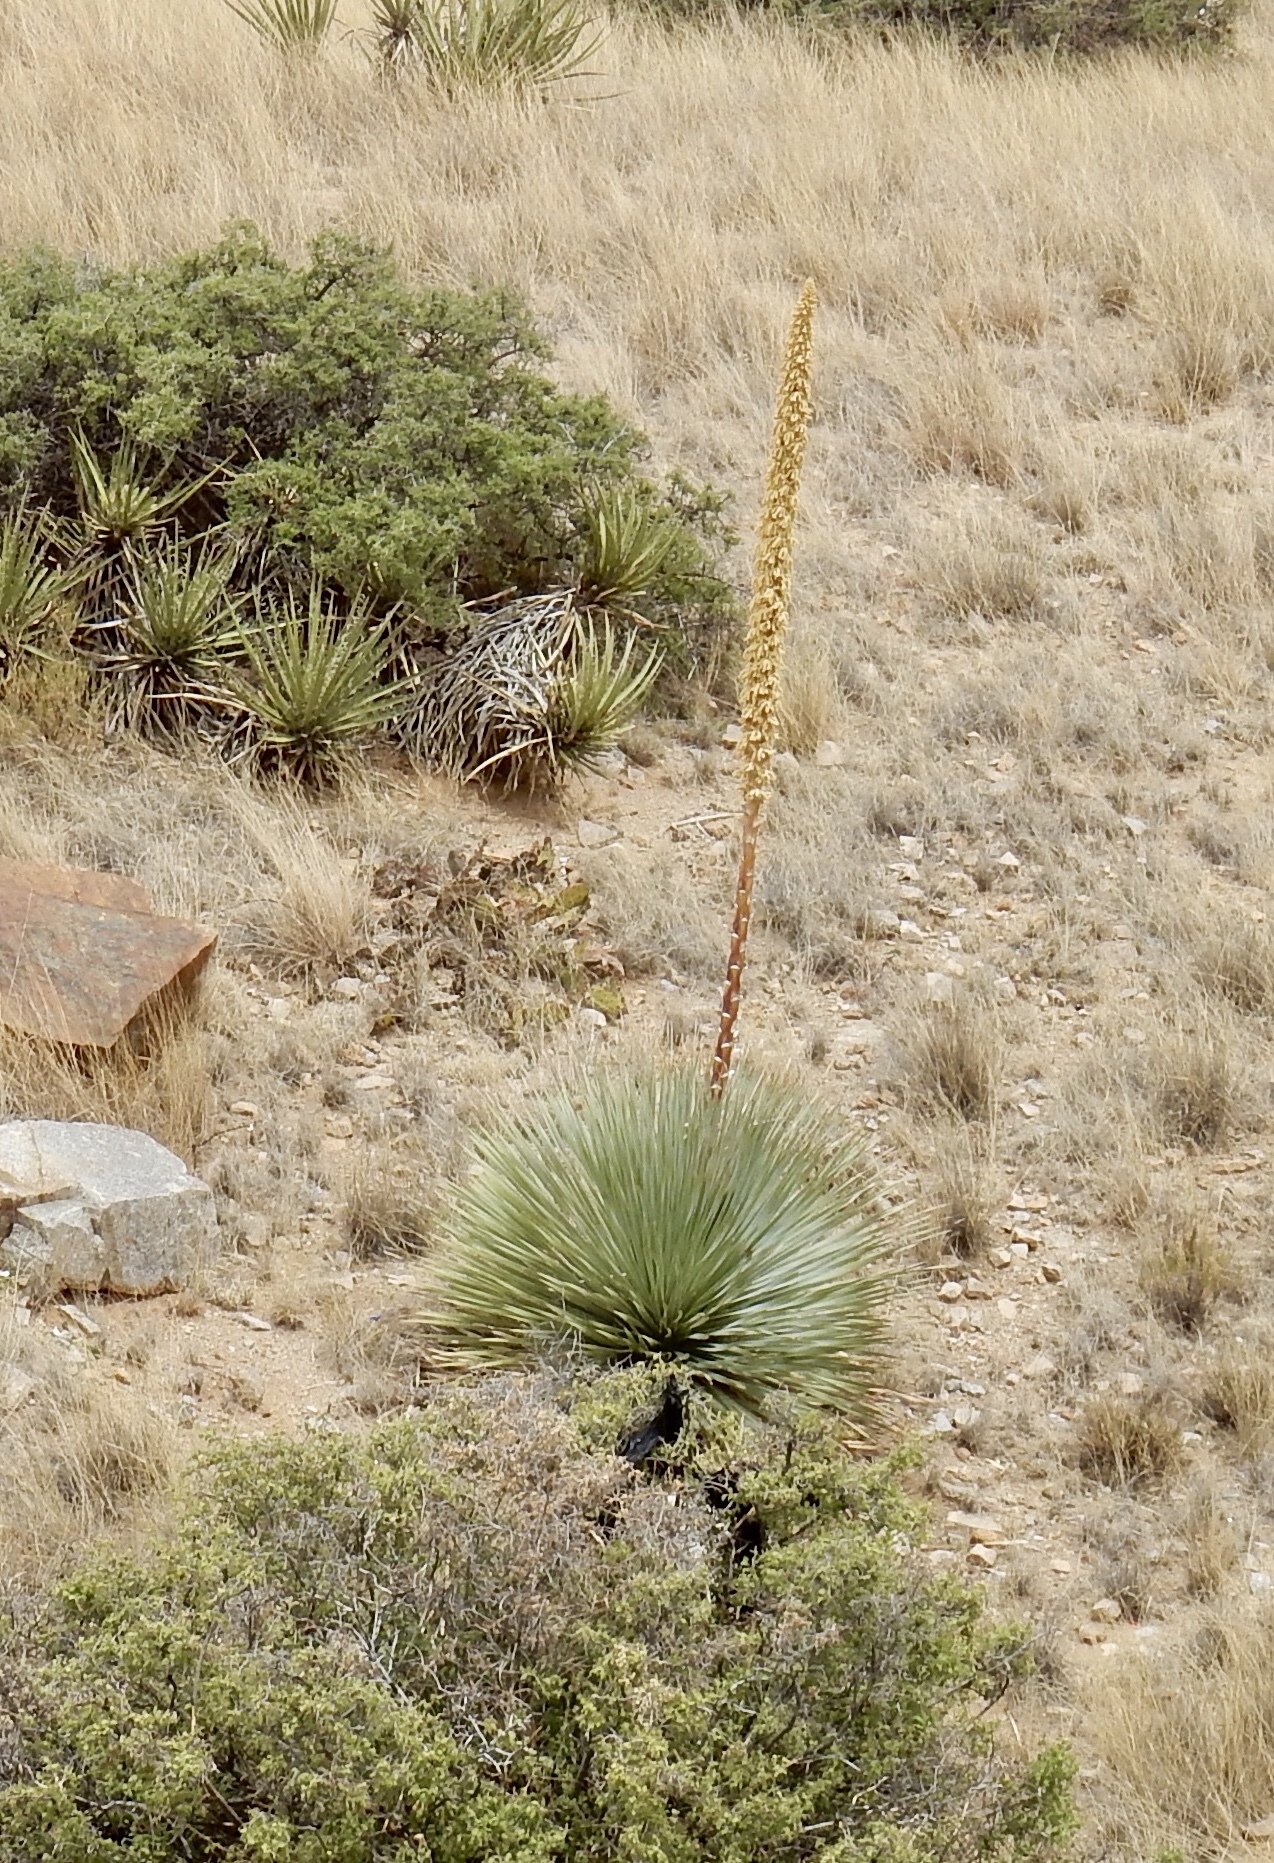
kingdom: Plantae
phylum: Tracheophyta
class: Liliopsida
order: Asparagales
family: Asparagaceae
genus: Dasylirion
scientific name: Dasylirion wheeleri
